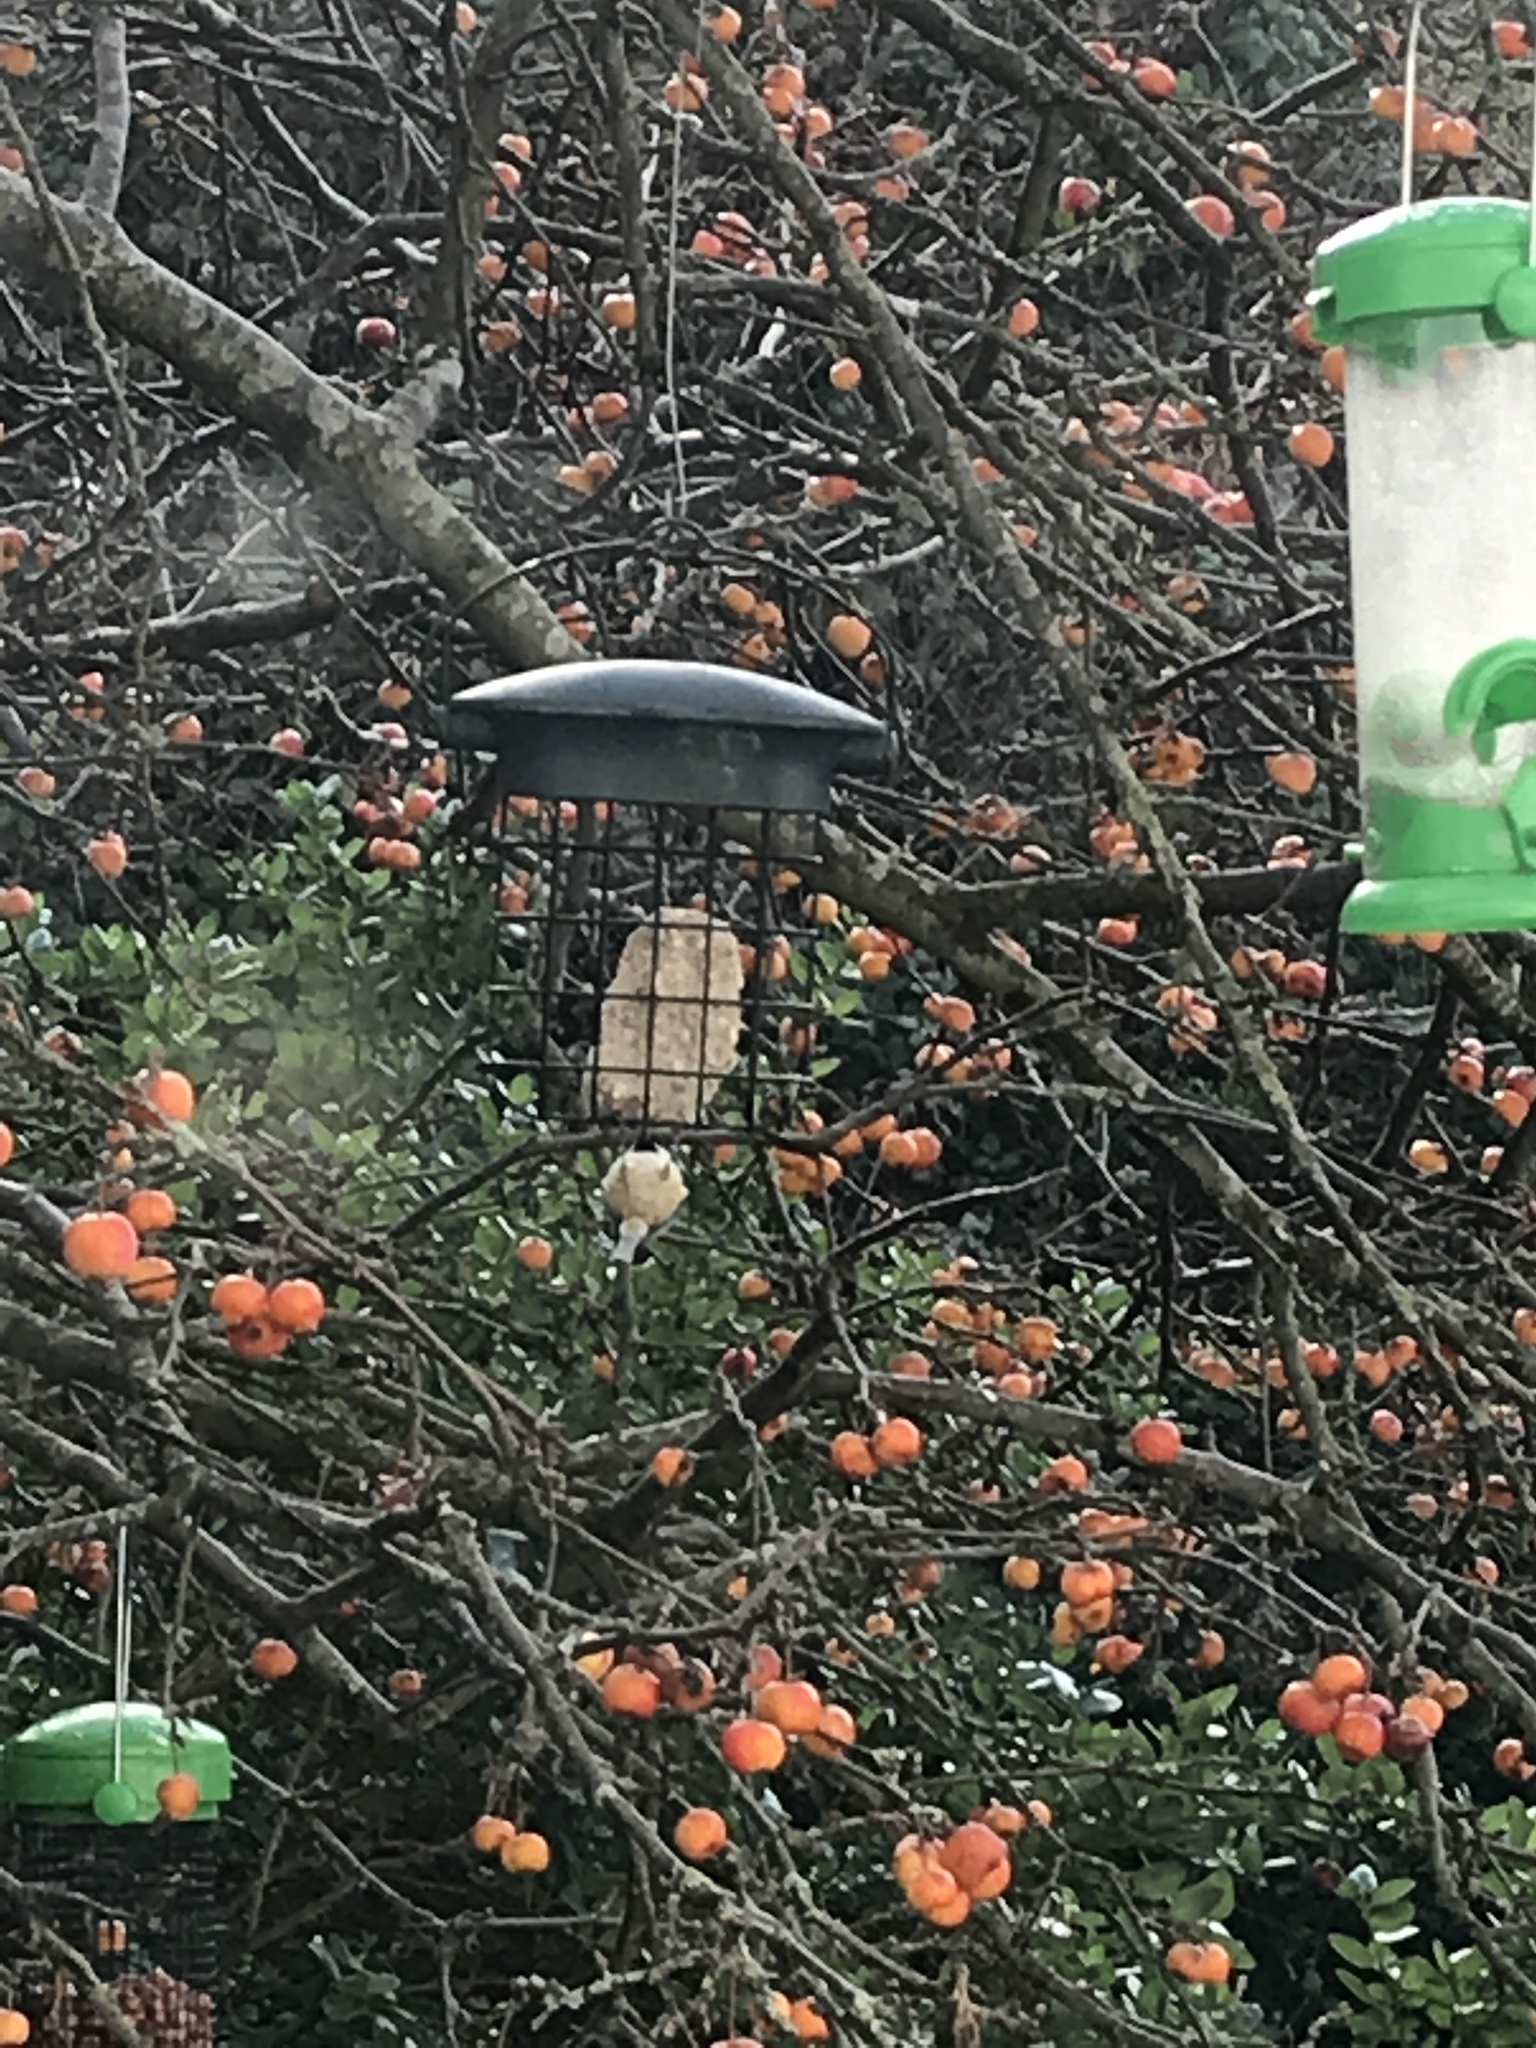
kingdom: Animalia
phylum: Chordata
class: Aves
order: Passeriformes
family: Paridae
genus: Periparus
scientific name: Periparus ater
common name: Coal tit
